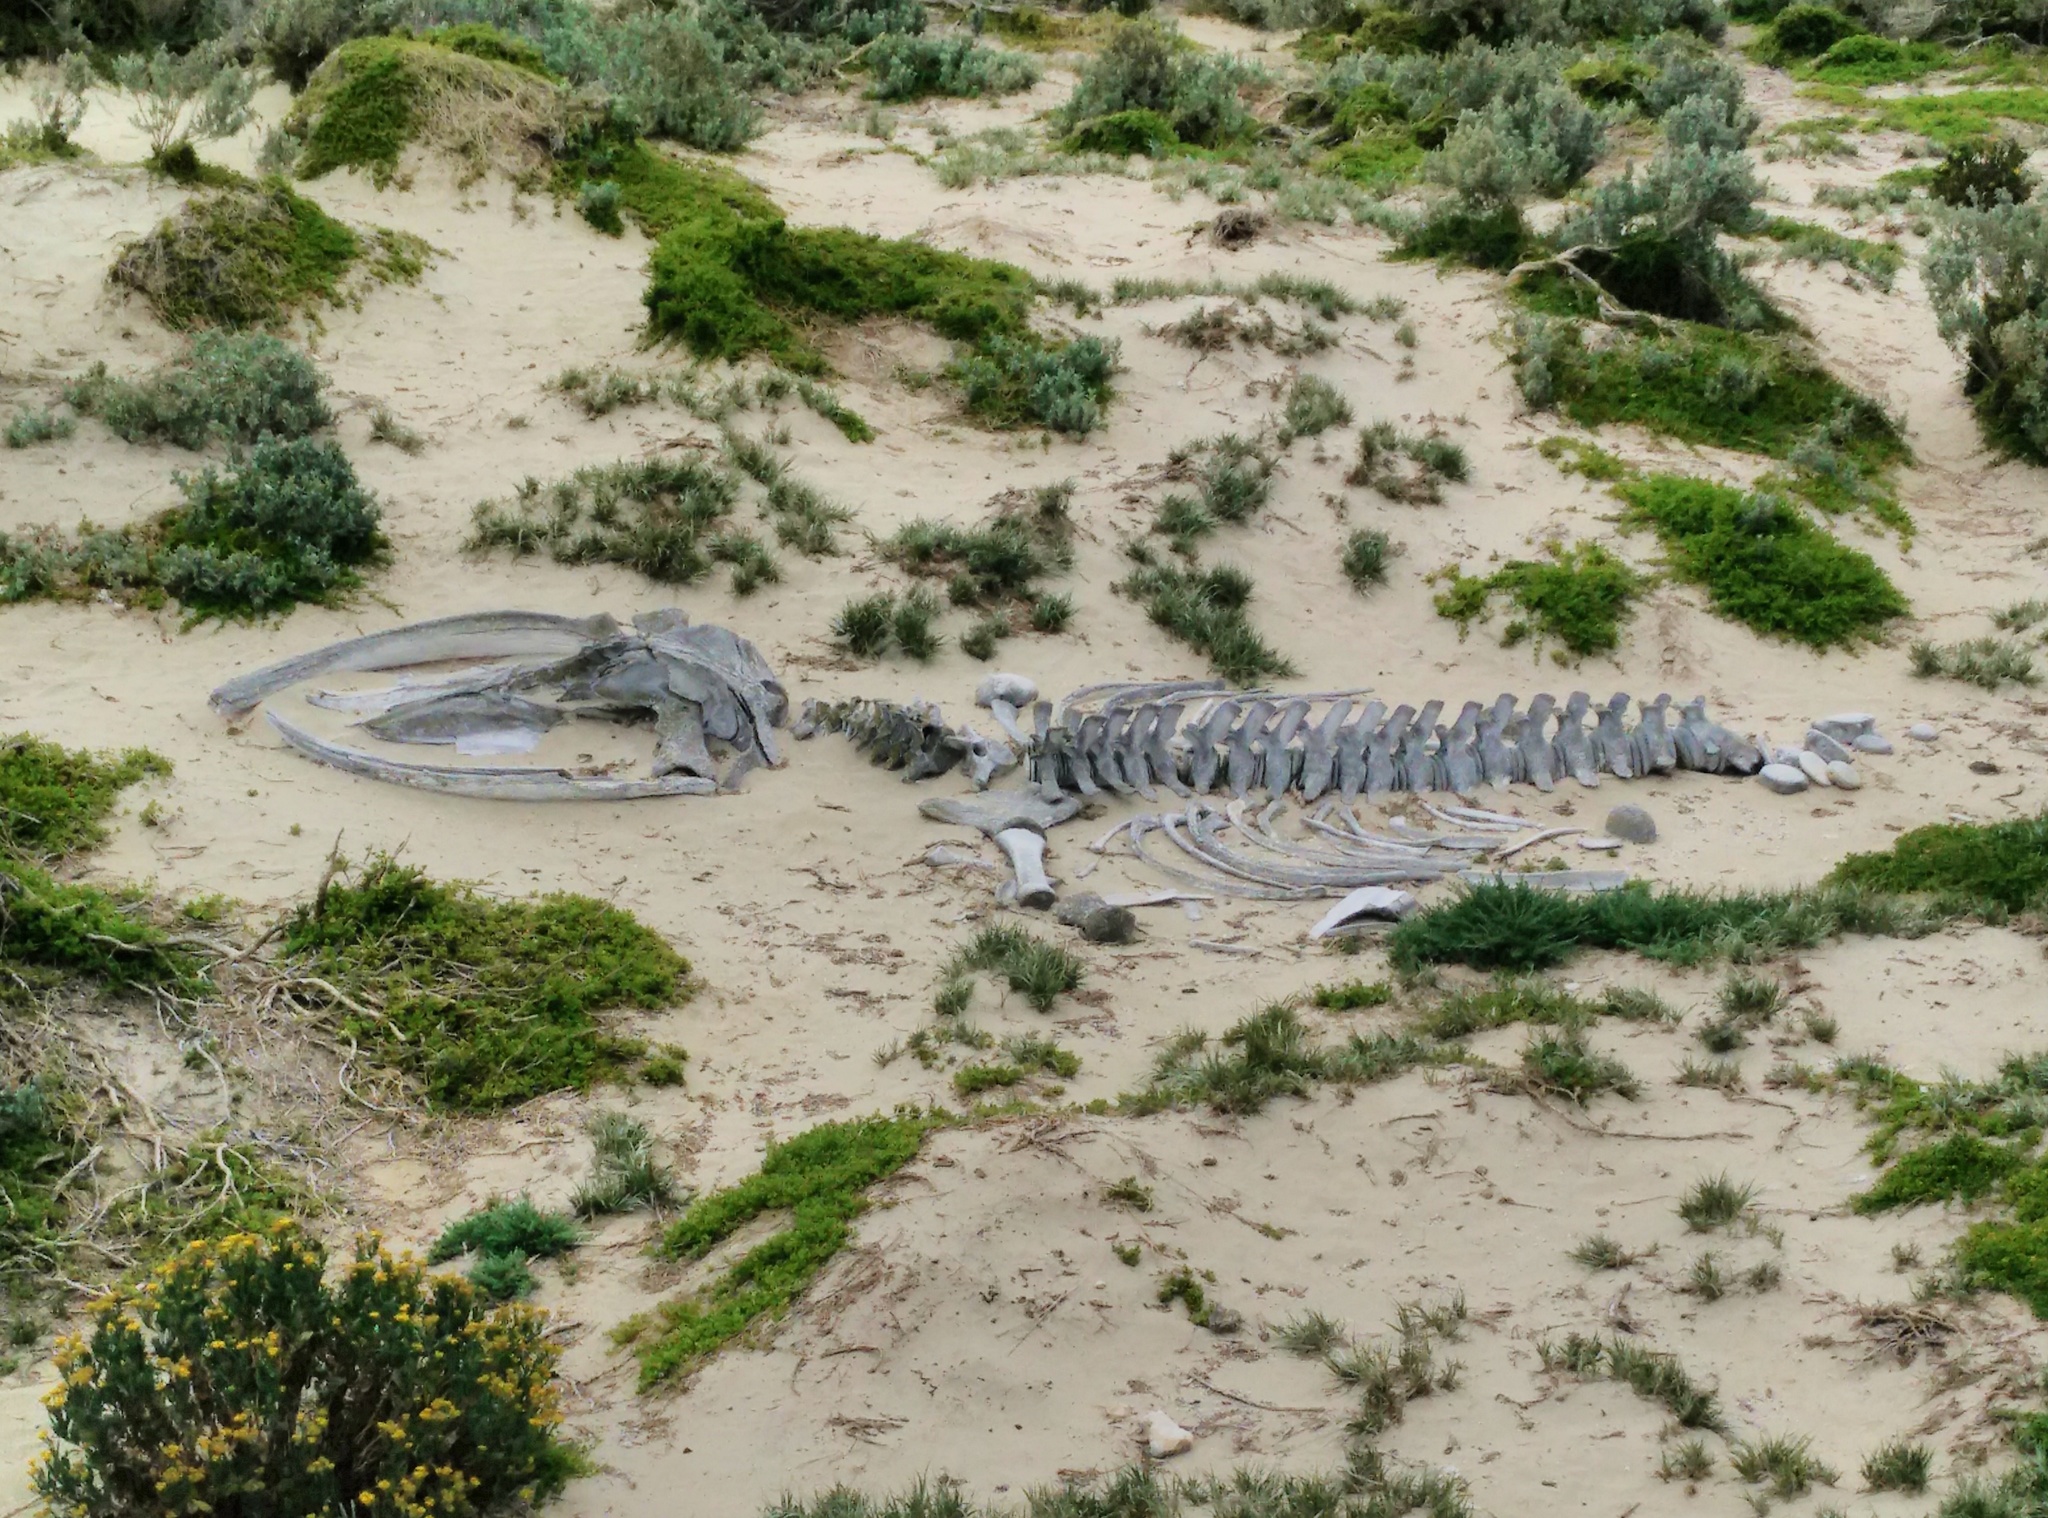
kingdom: Animalia
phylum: Chordata
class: Mammalia
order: Cetacea
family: Balaenopteridae
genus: Megaptera
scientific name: Megaptera novaeangliae
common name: Humpback whale
